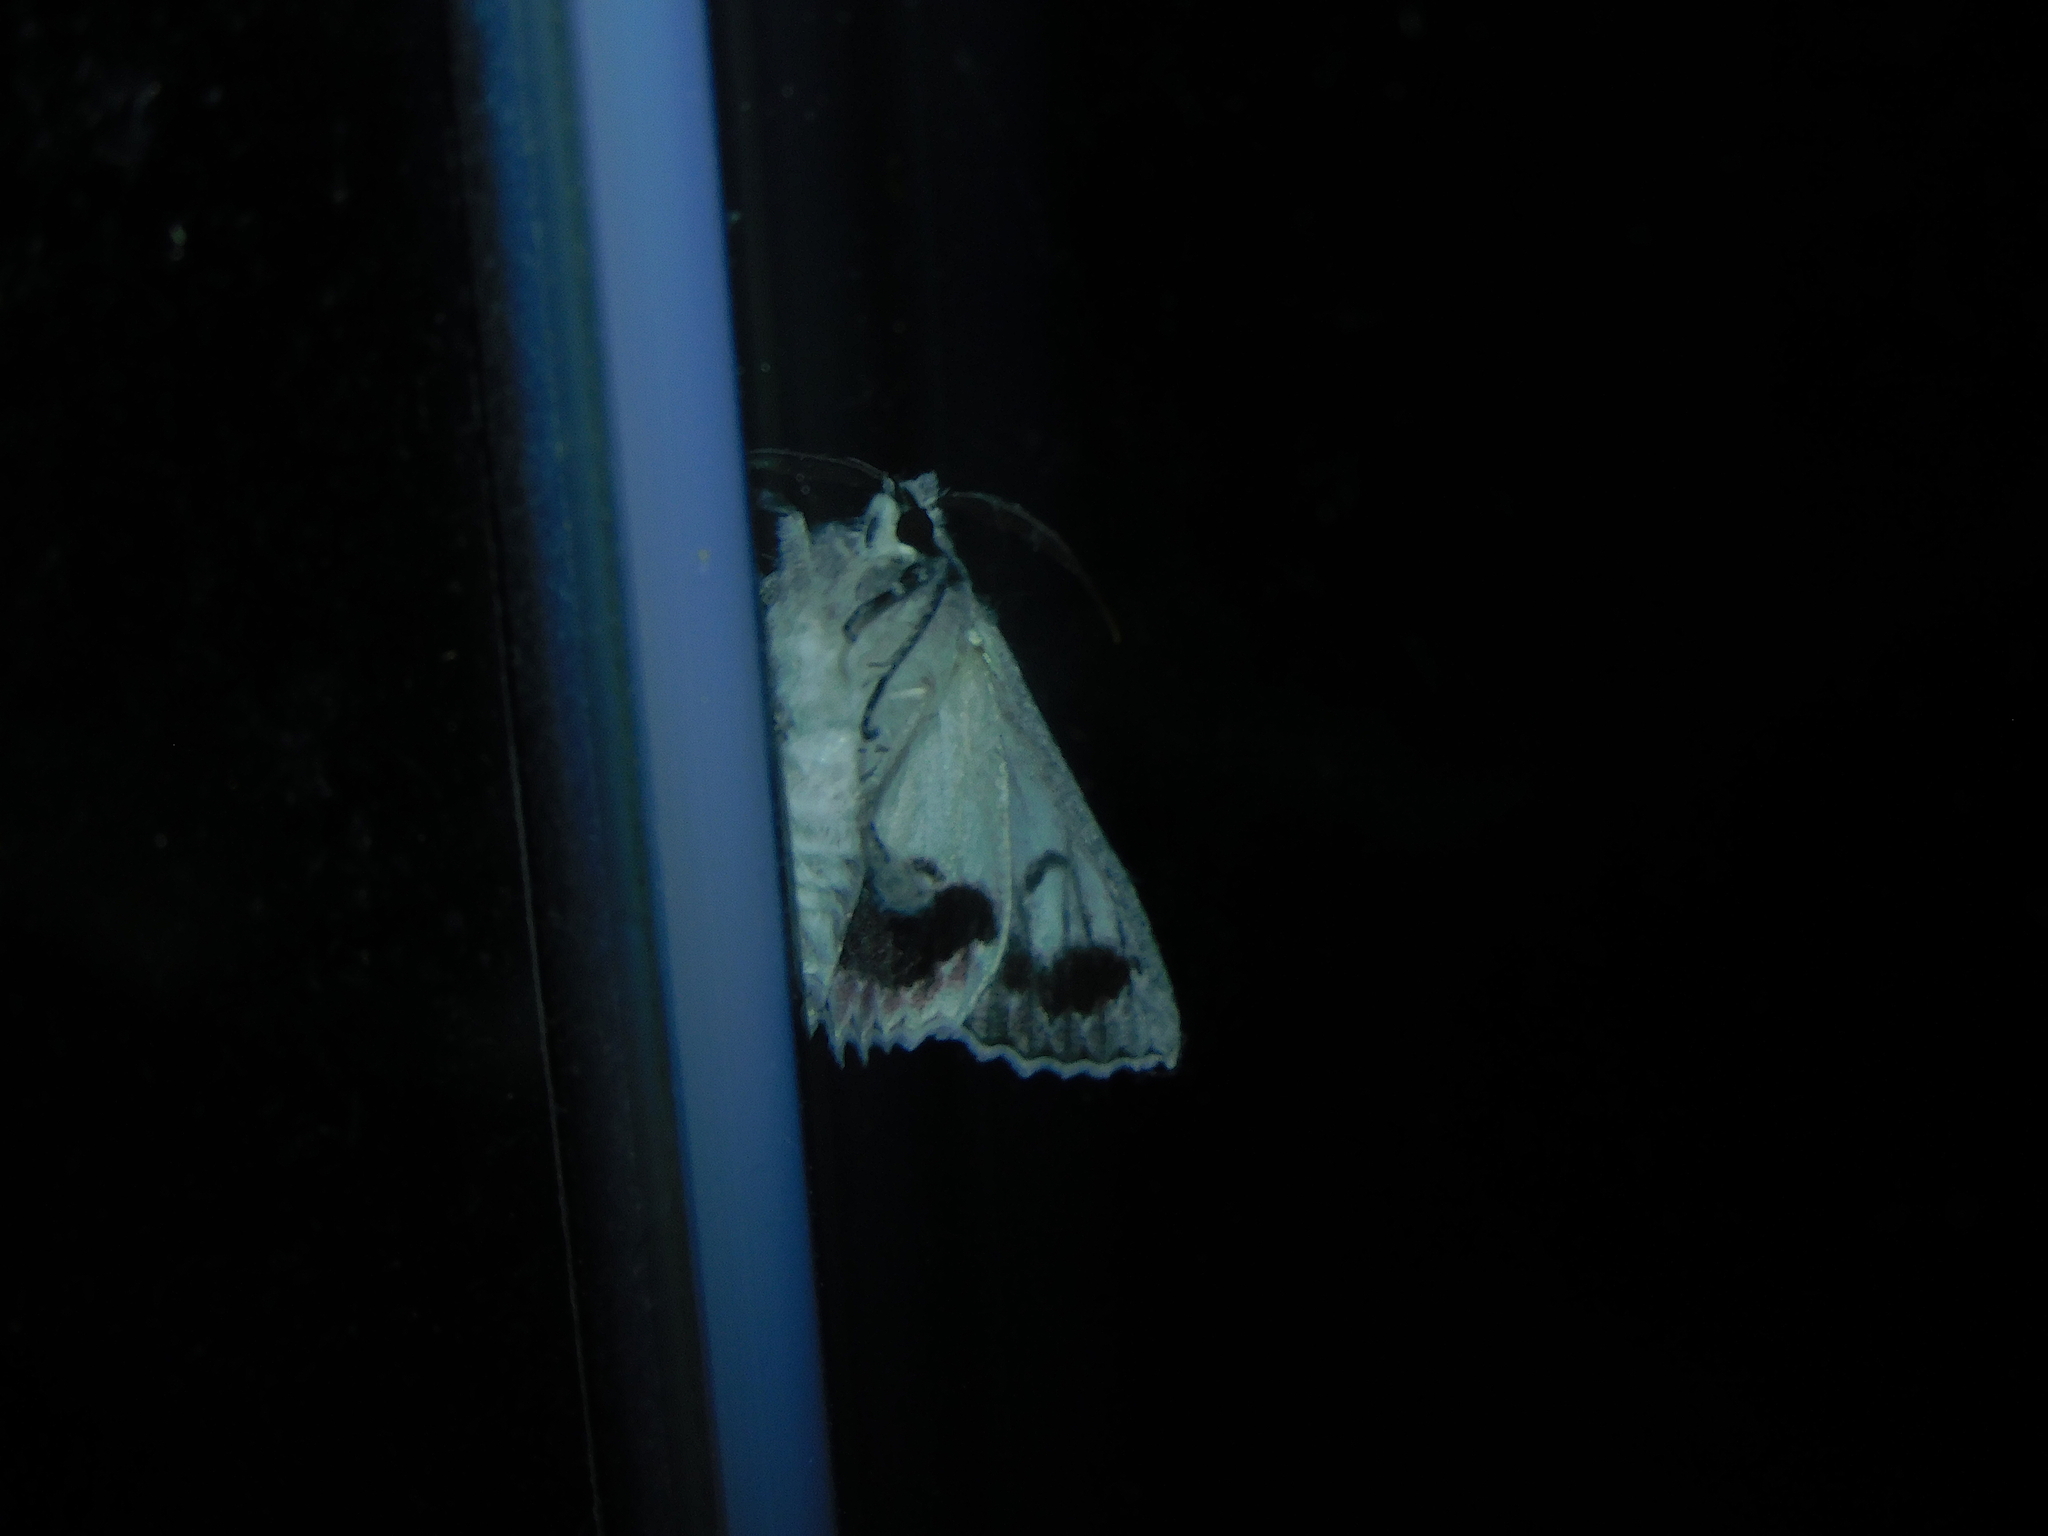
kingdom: Animalia
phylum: Arthropoda
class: Insecta
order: Lepidoptera
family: Geometridae
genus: Cyneoterpna
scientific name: Cyneoterpna wilsoni
